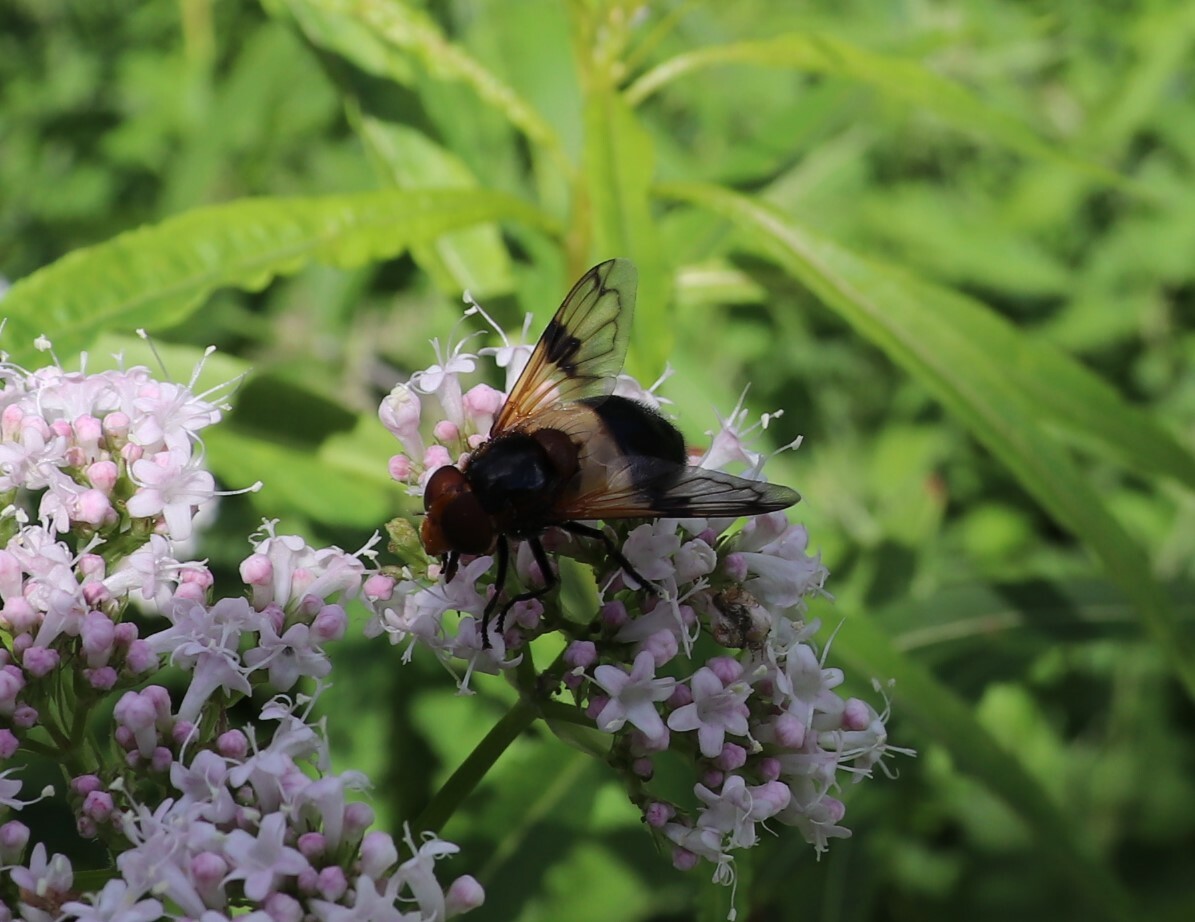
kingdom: Animalia
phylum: Arthropoda
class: Insecta
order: Diptera
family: Syrphidae
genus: Volucella
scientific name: Volucella pellucens
